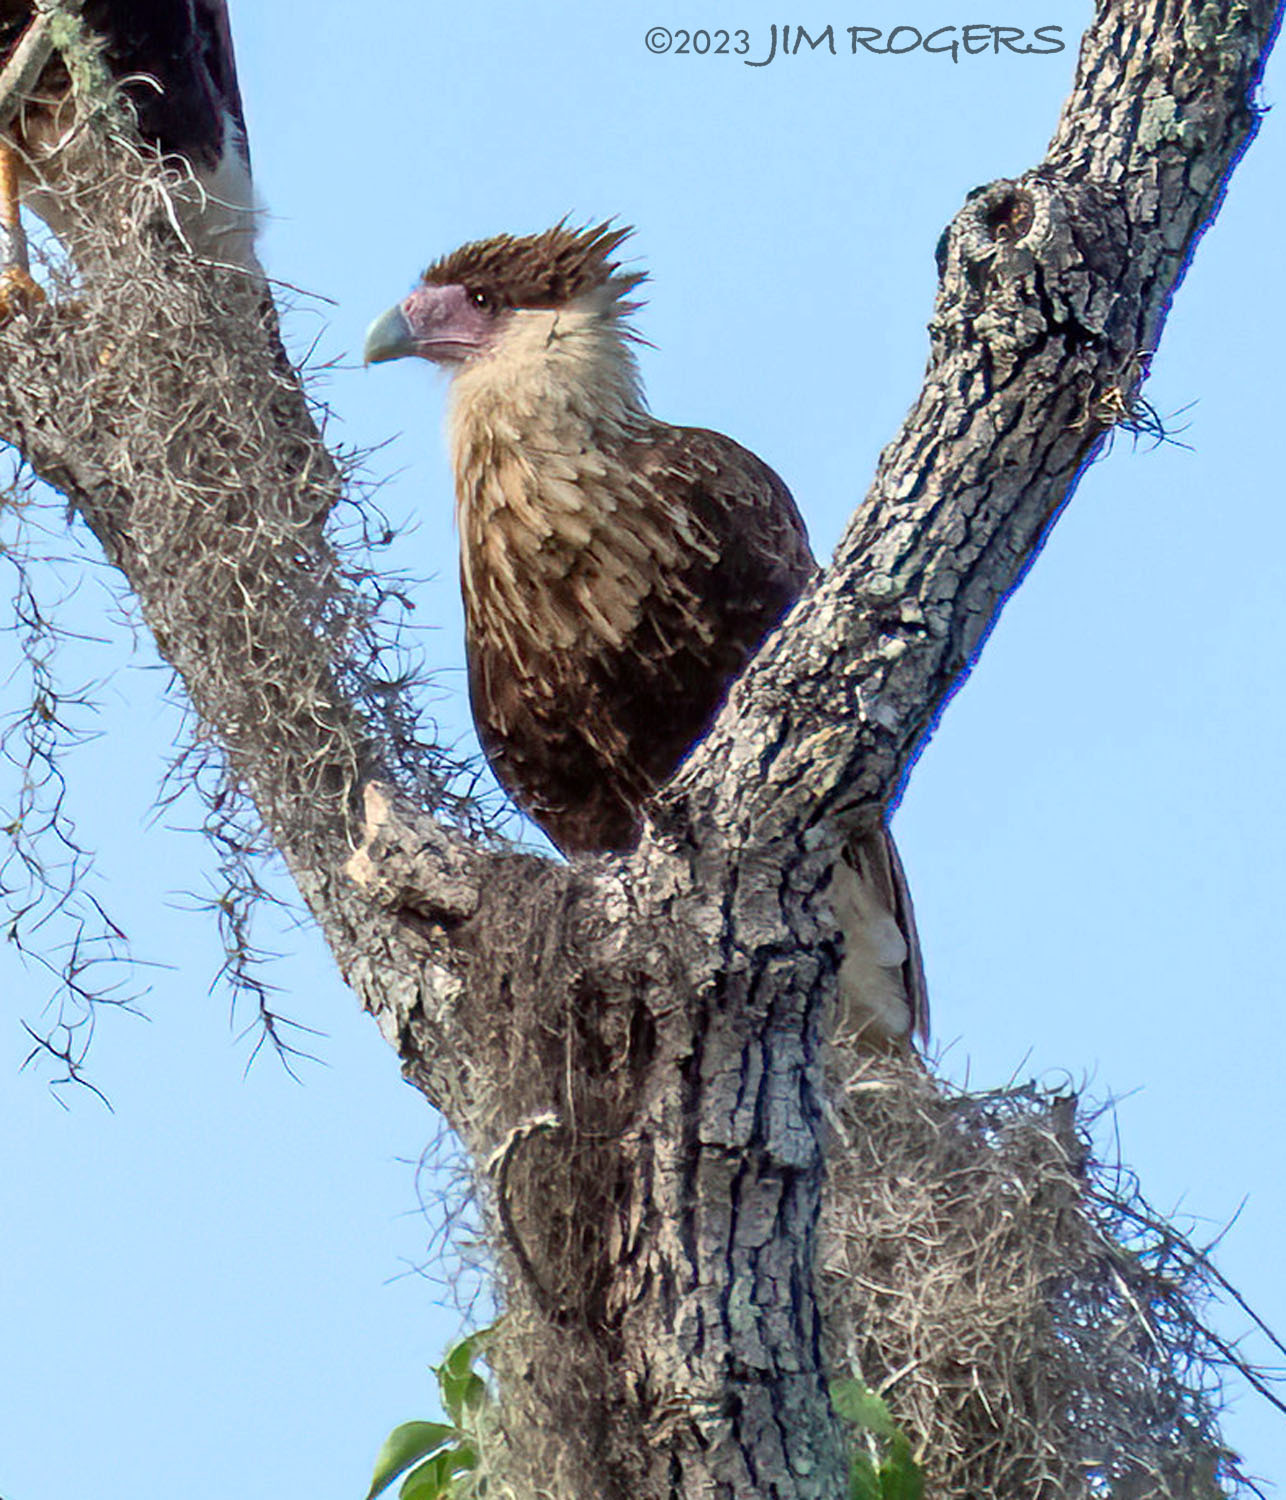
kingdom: Animalia
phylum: Chordata
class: Aves
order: Falconiformes
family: Falconidae
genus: Caracara
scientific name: Caracara plancus
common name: Southern caracara
